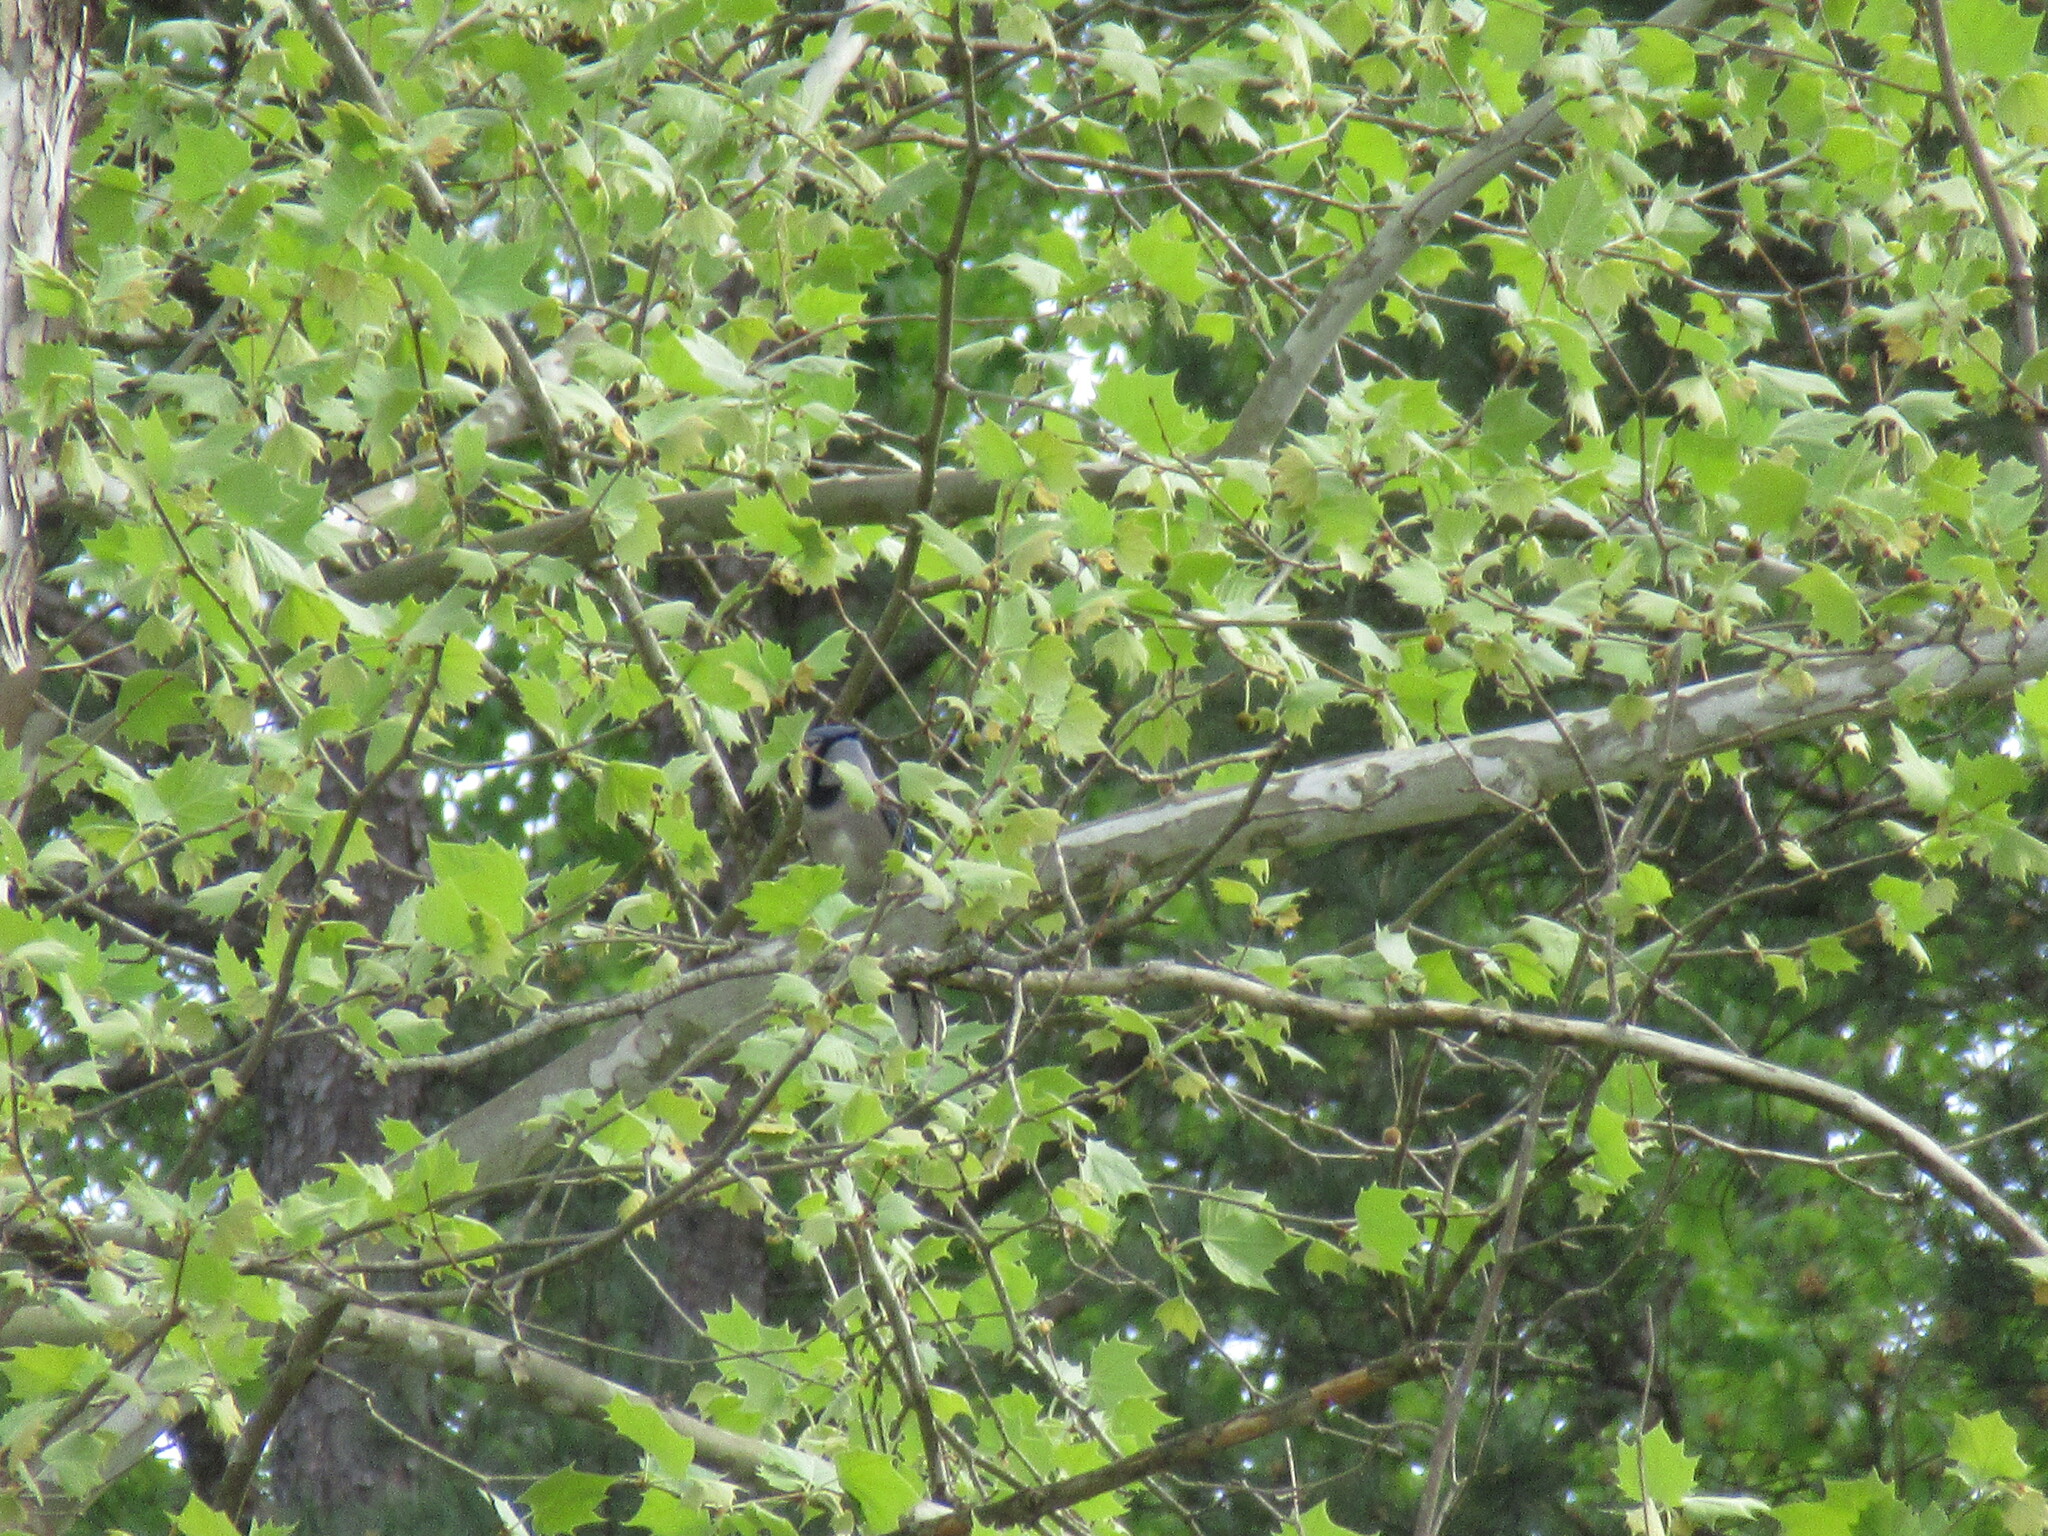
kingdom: Animalia
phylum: Chordata
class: Aves
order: Passeriformes
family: Corvidae
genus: Cyanocitta
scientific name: Cyanocitta cristata
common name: Blue jay
